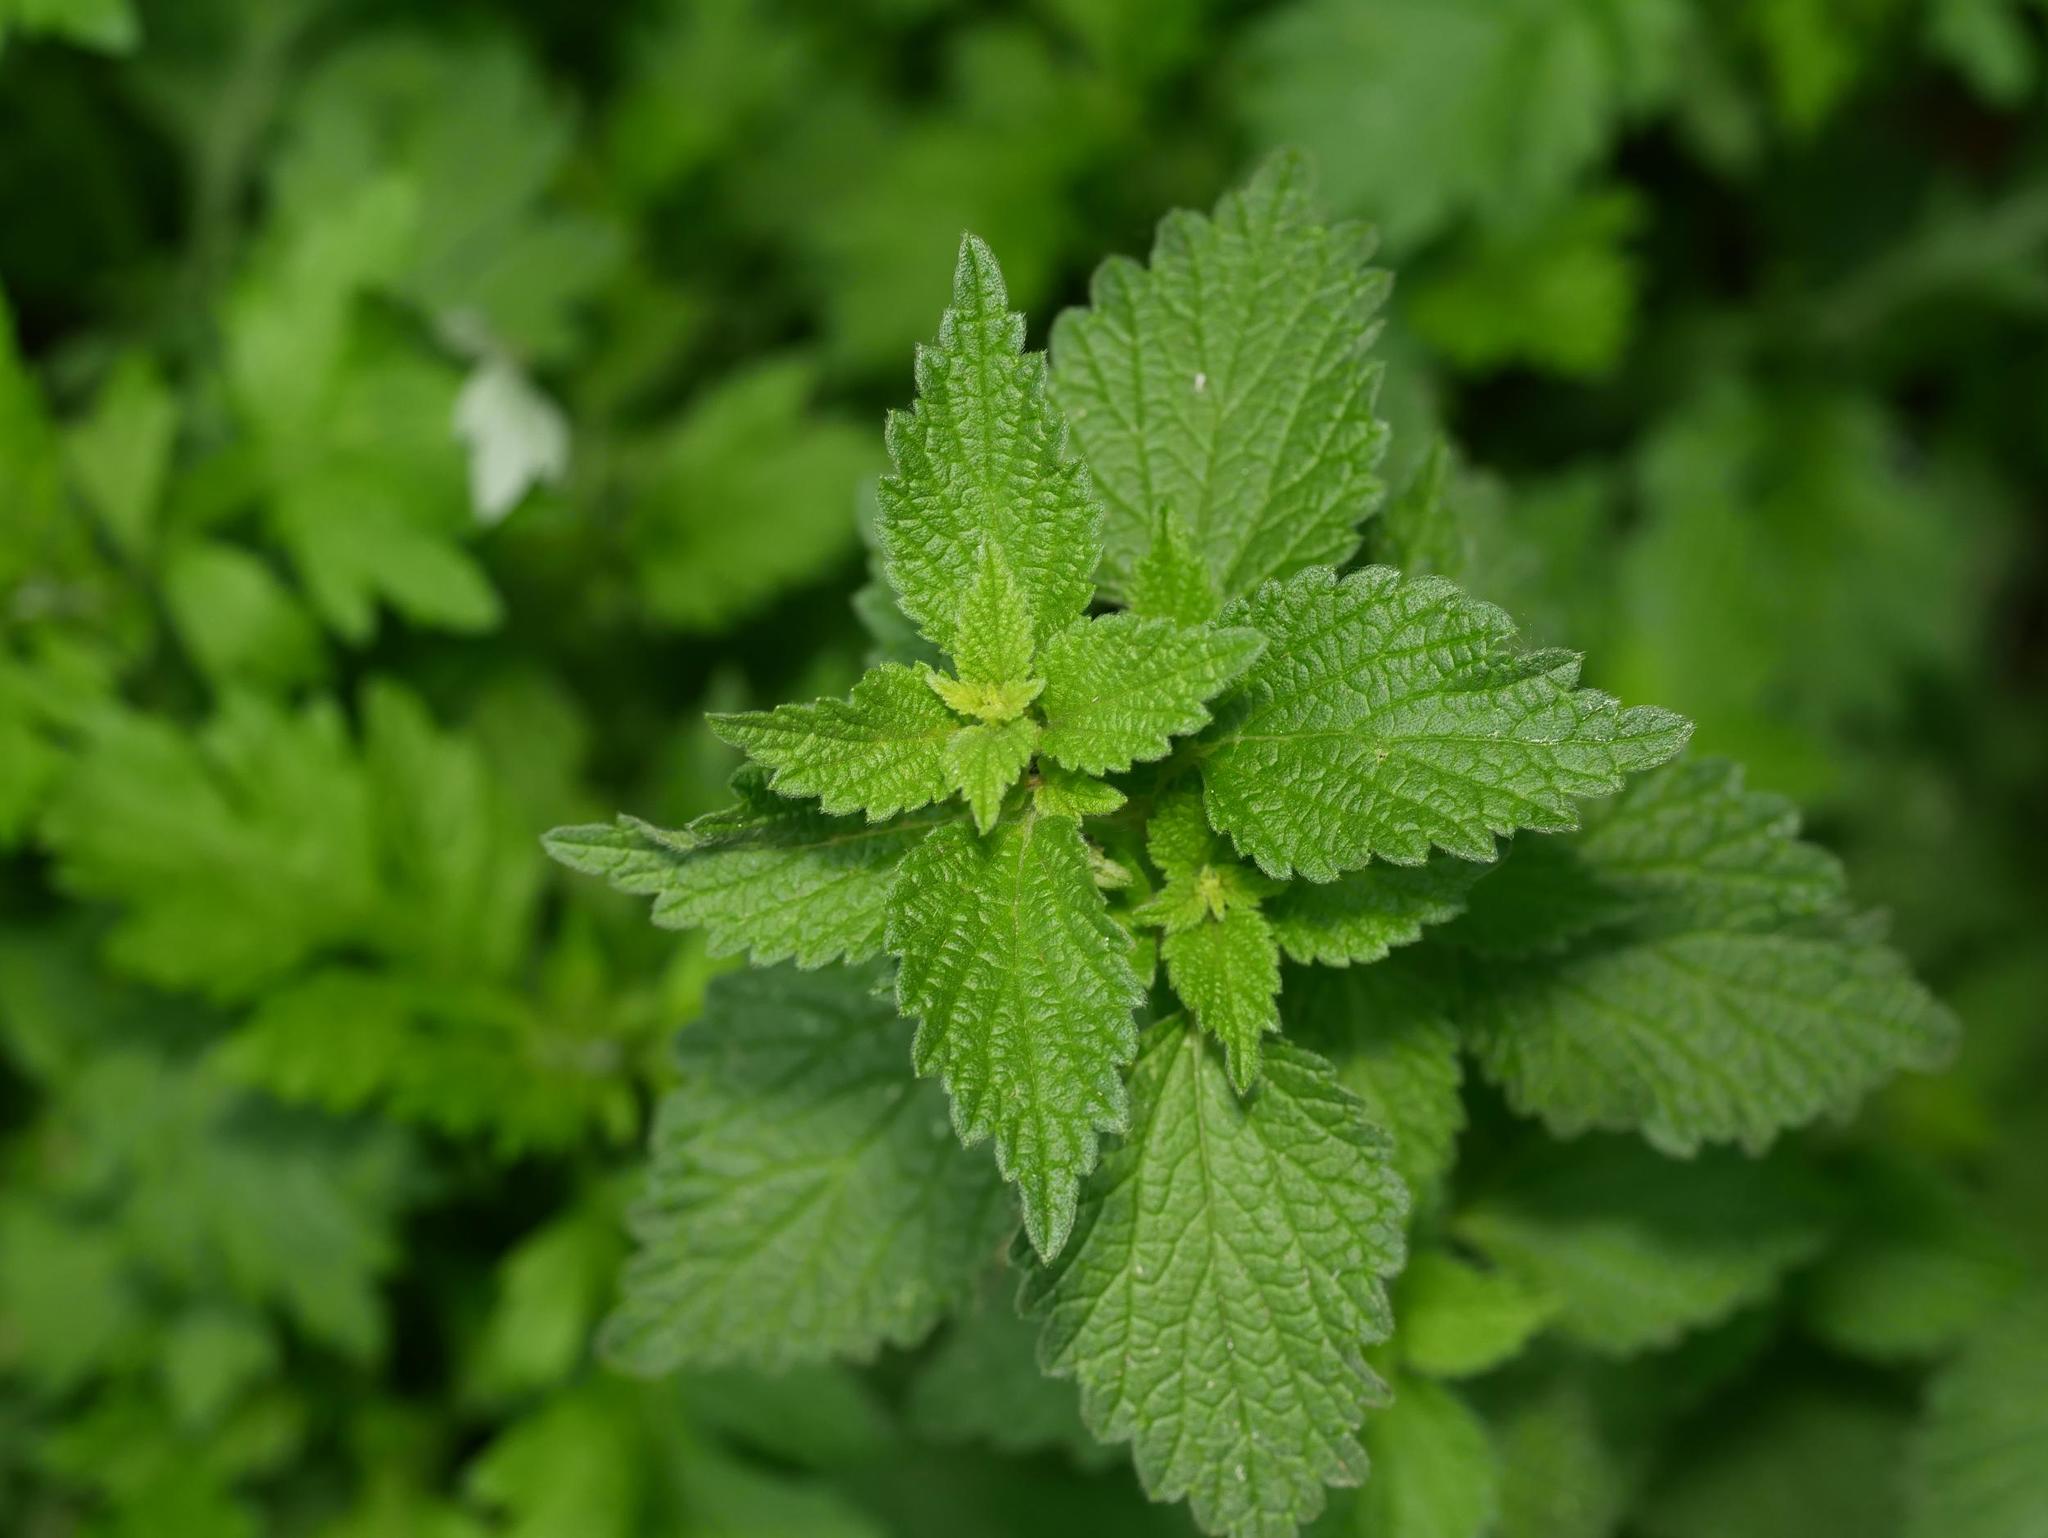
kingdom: Plantae
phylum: Tracheophyta
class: Magnoliopsida
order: Lamiales
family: Lamiaceae
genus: Ballota
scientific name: Ballota nigra
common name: Black horehound
